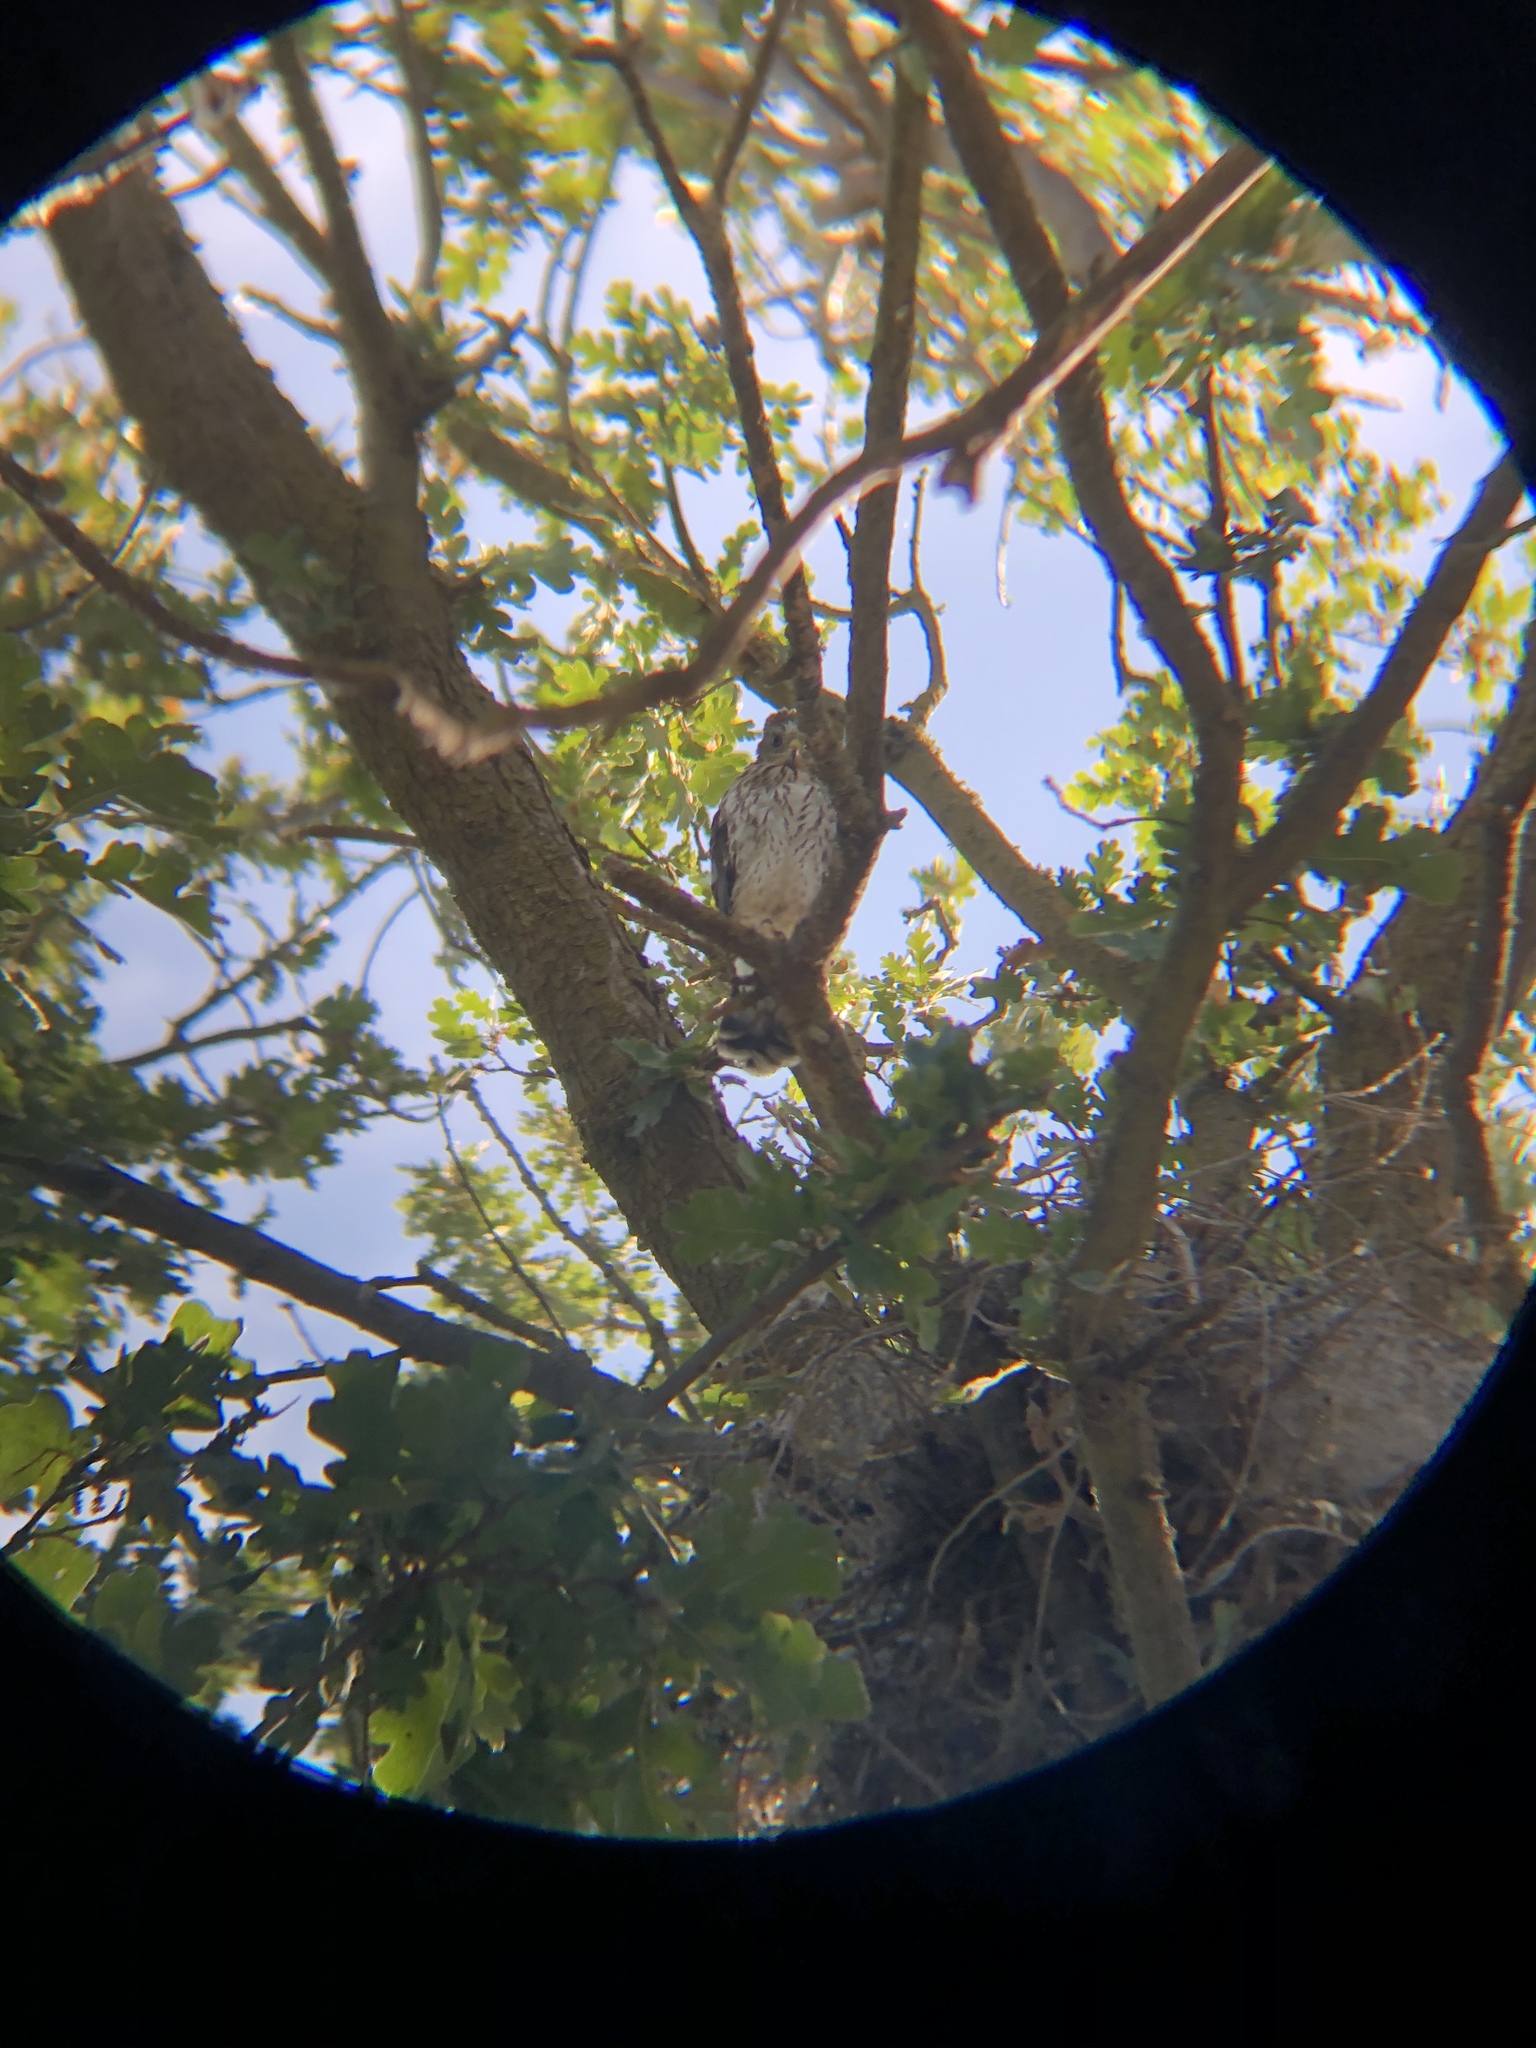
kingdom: Animalia
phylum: Chordata
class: Aves
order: Accipitriformes
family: Accipitridae
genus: Accipiter
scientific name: Accipiter cooperii
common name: Cooper's hawk
